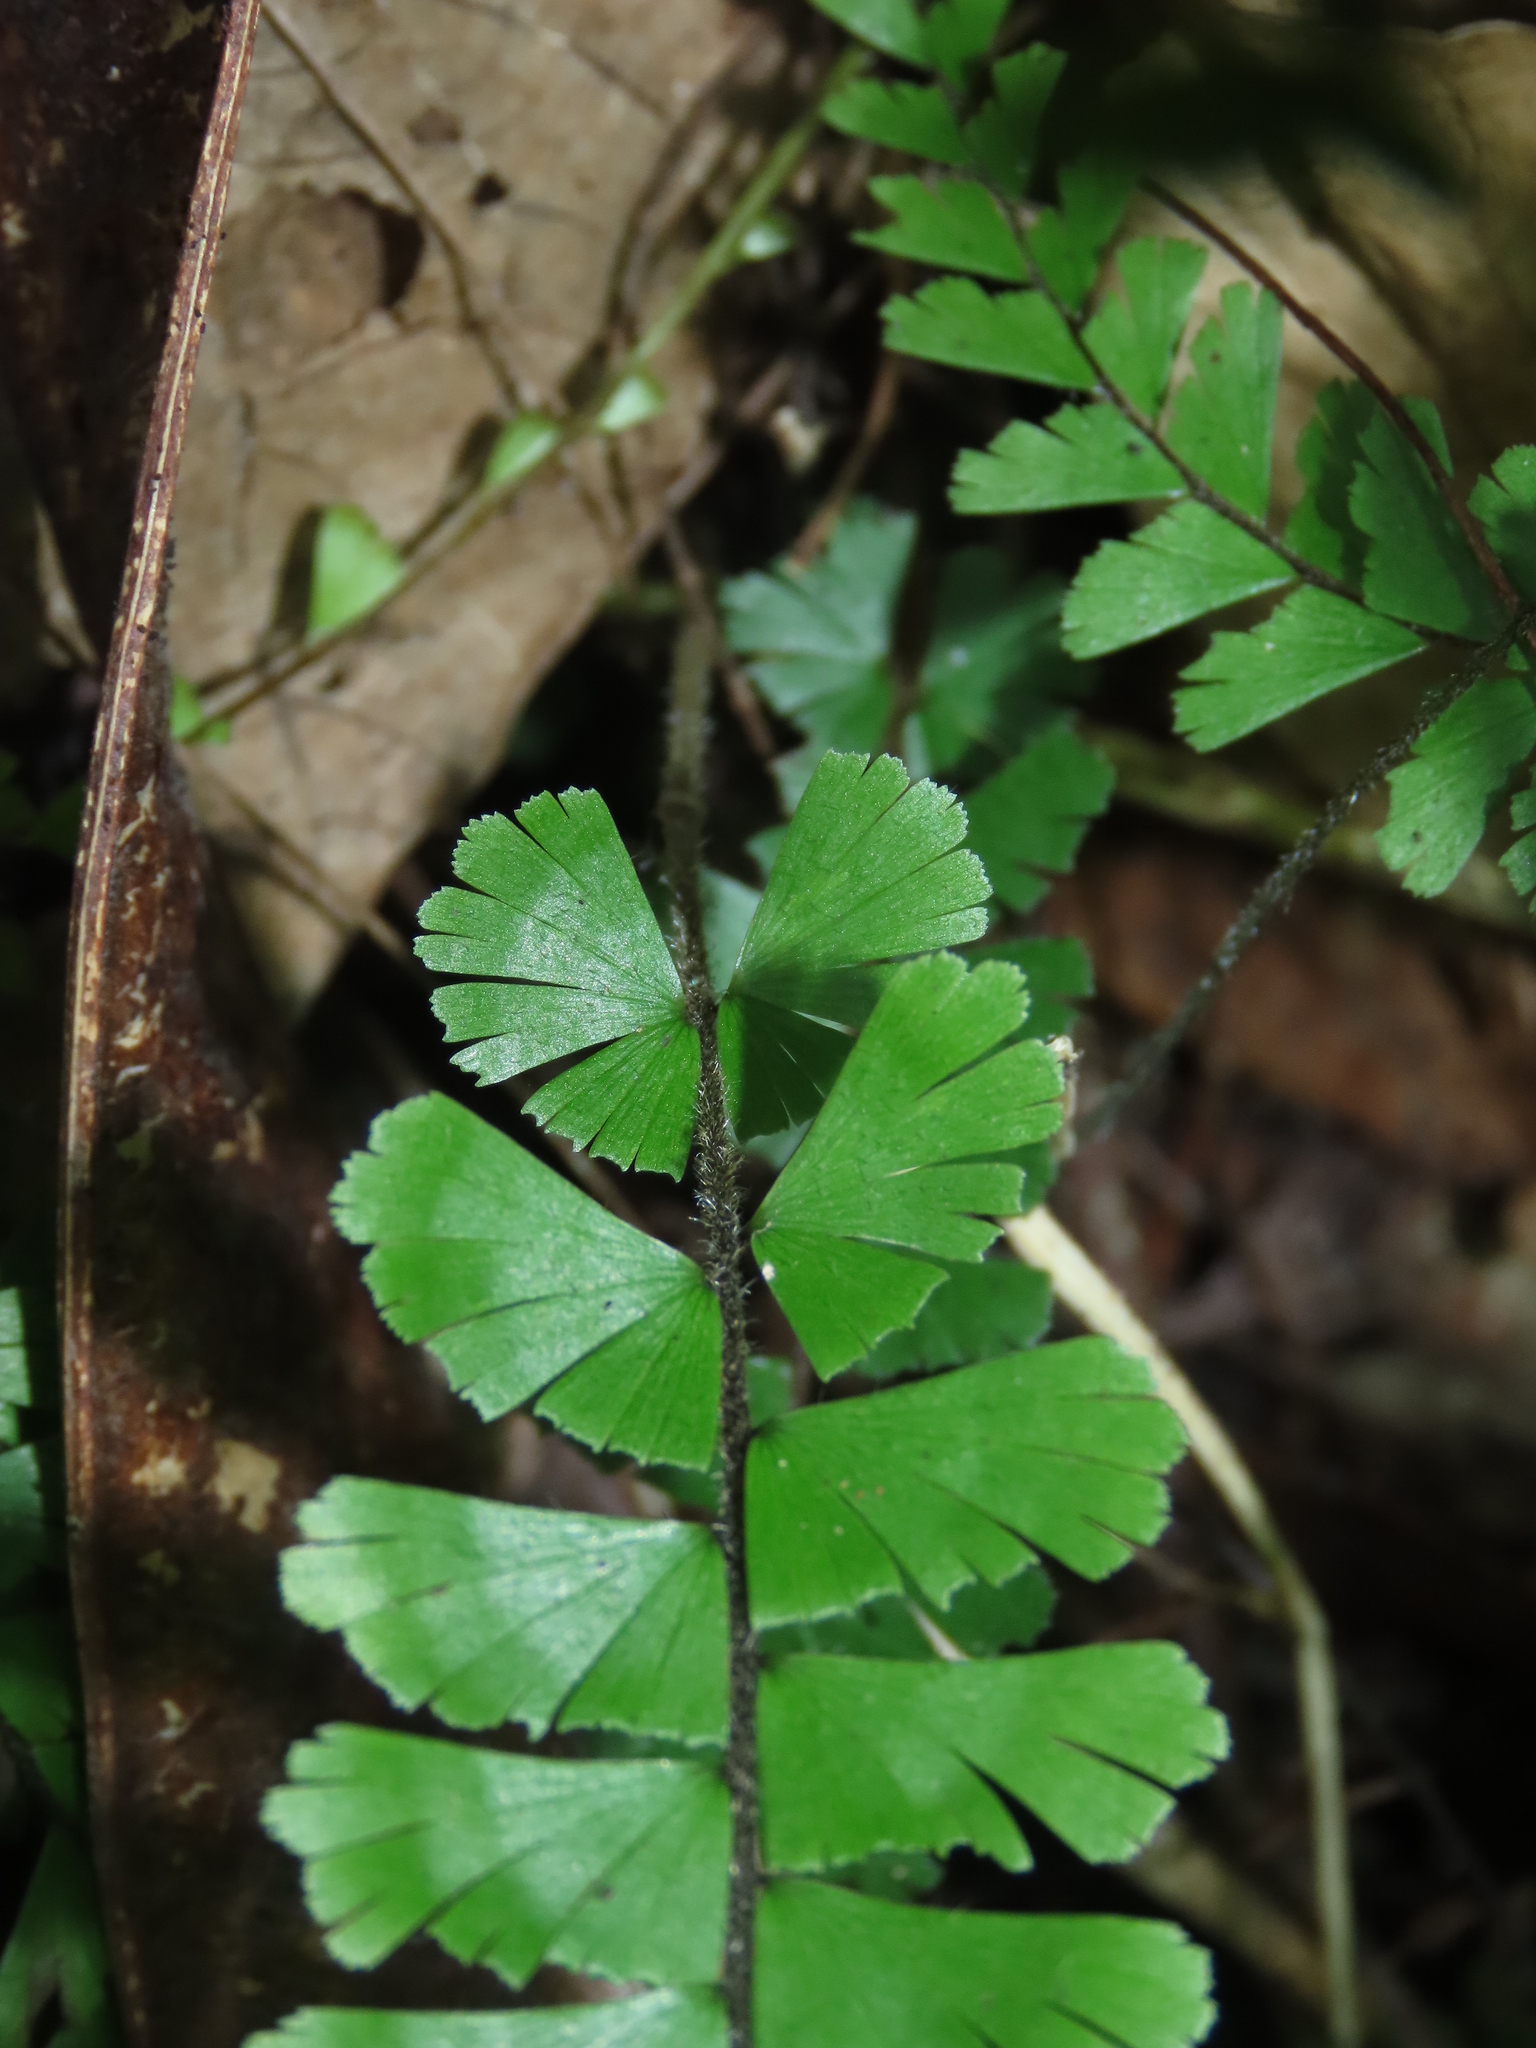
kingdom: Plantae
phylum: Tracheophyta
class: Polypodiopsida
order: Polypodiales
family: Pteridaceae
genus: Adiantum
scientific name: Adiantum caudatum
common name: Tailed maidenhair
